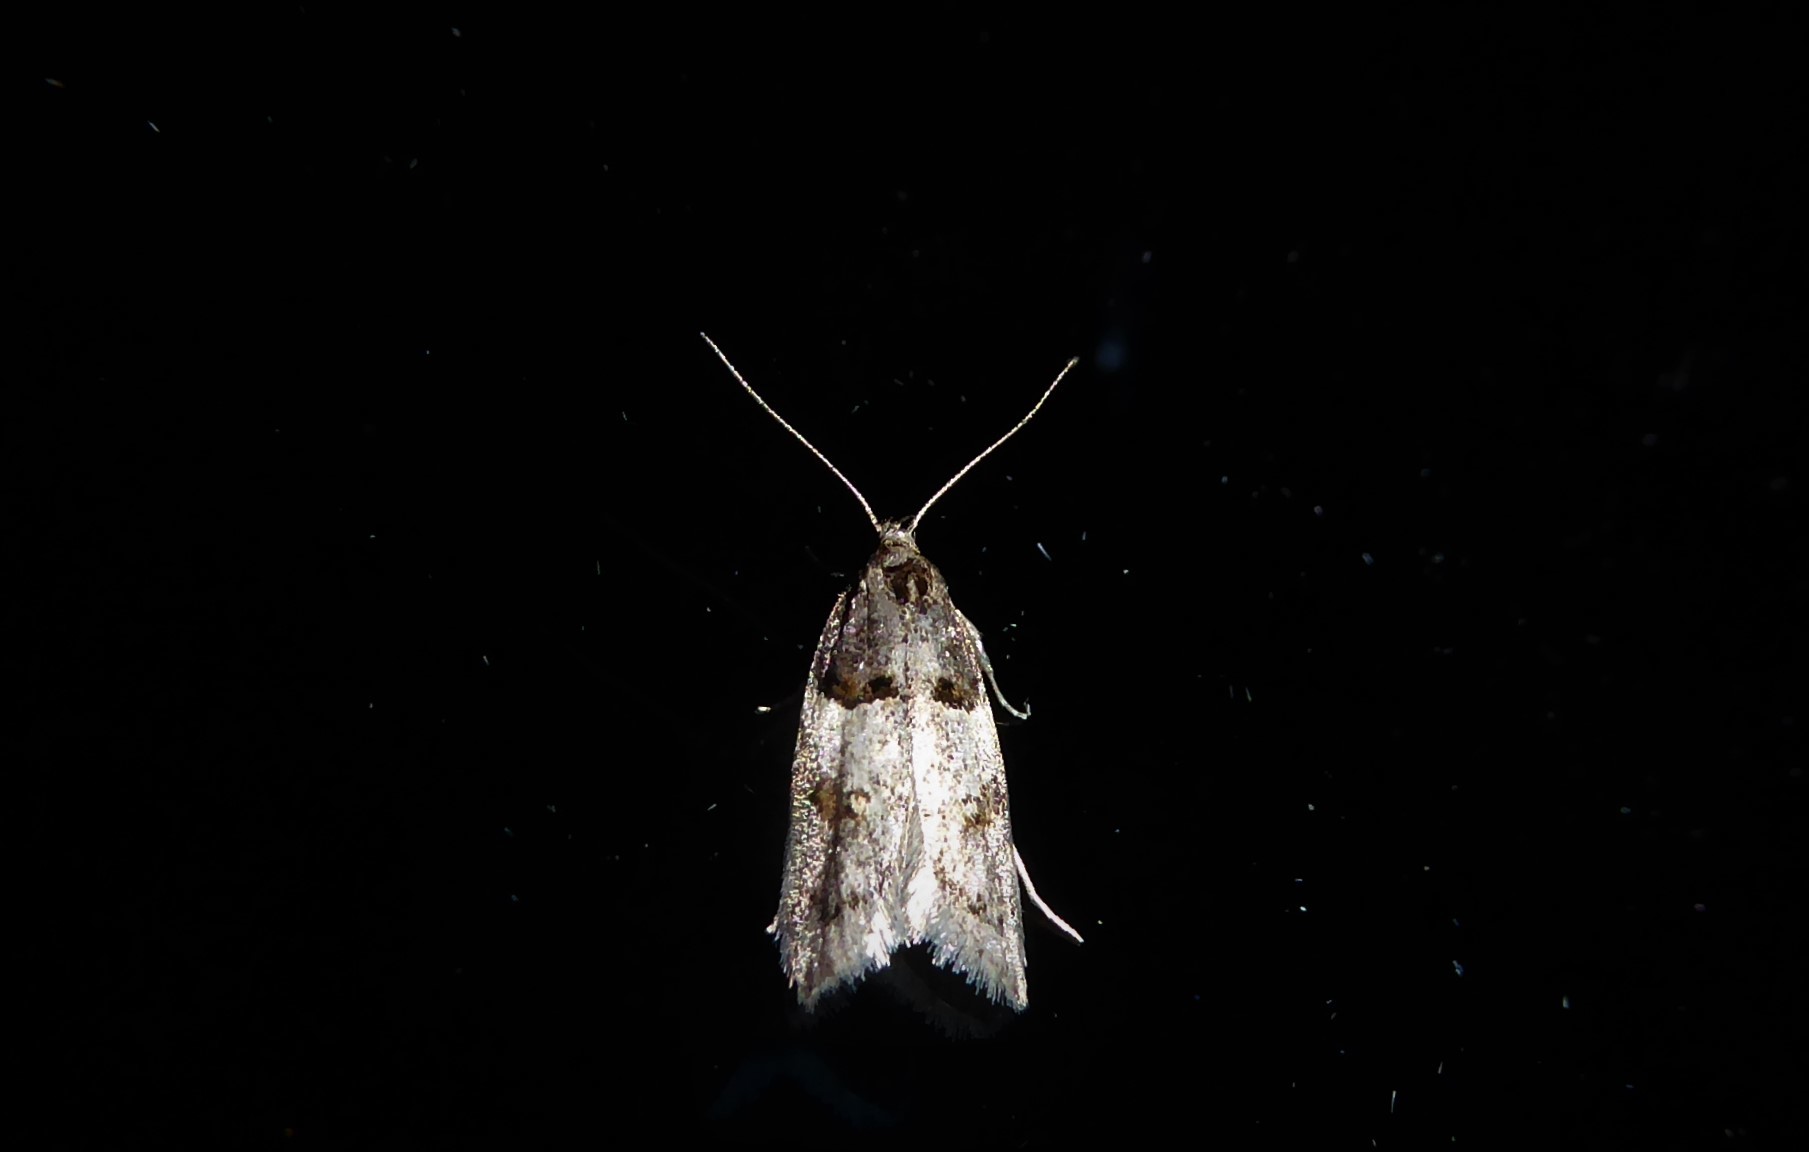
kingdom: Animalia
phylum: Arthropoda
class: Insecta
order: Lepidoptera
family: Oecophoridae
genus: Trachypepla
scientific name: Trachypepla contritella
